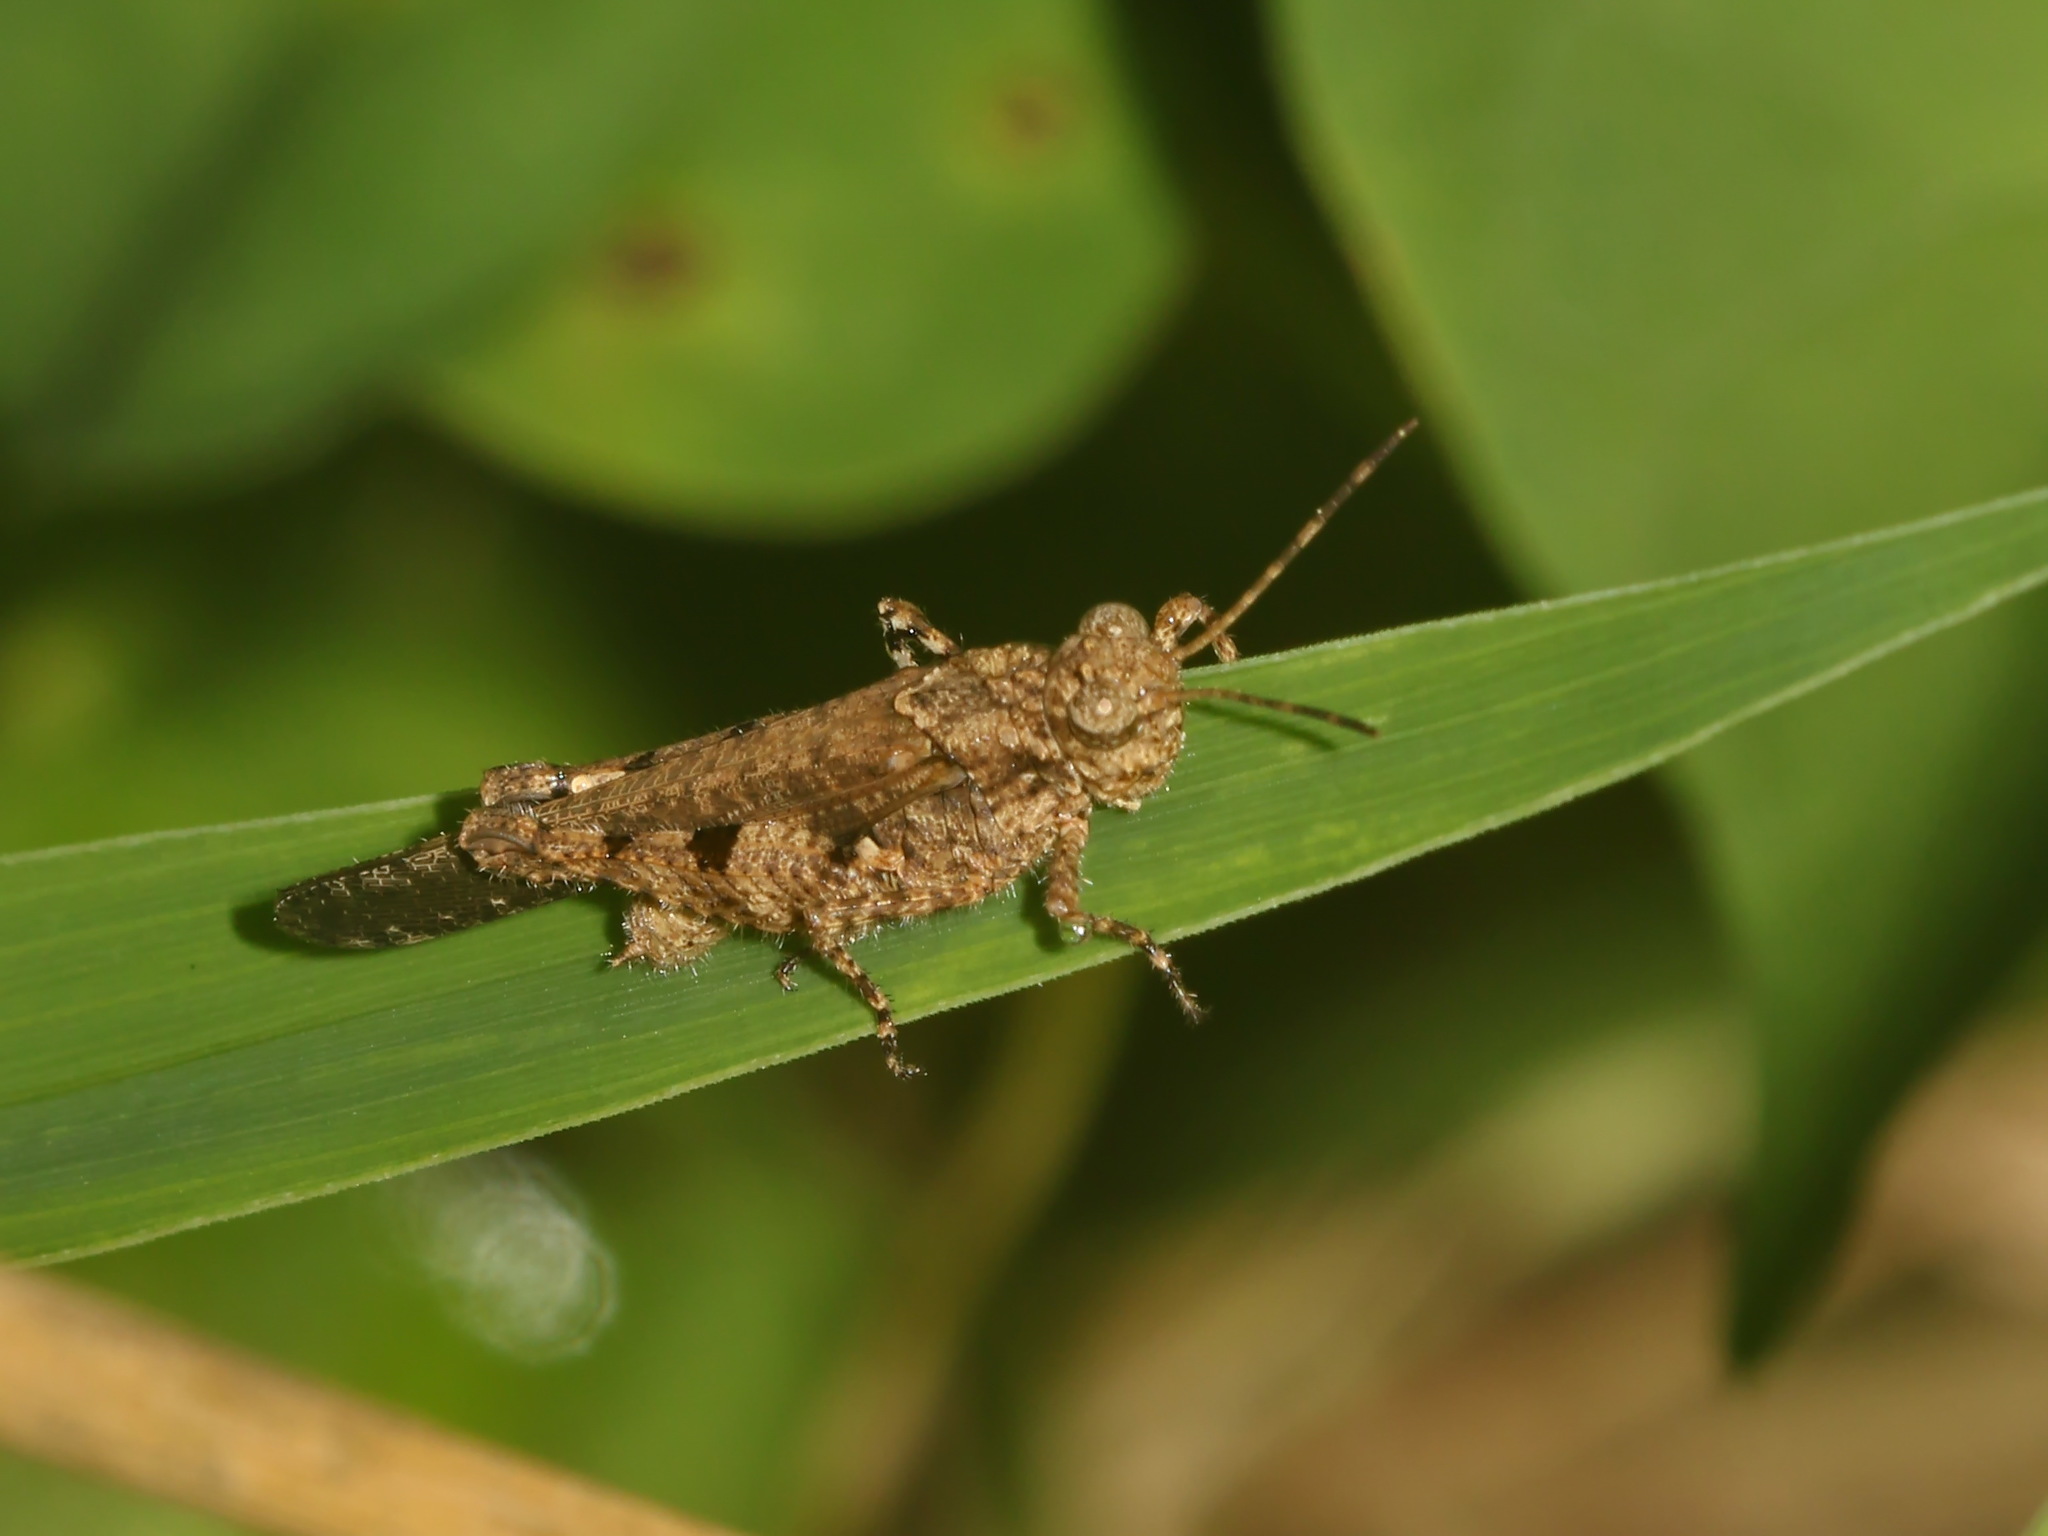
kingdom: Animalia
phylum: Arthropoda
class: Insecta
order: Orthoptera
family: Acrididae
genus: Trilophidia
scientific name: Trilophidia annulata
